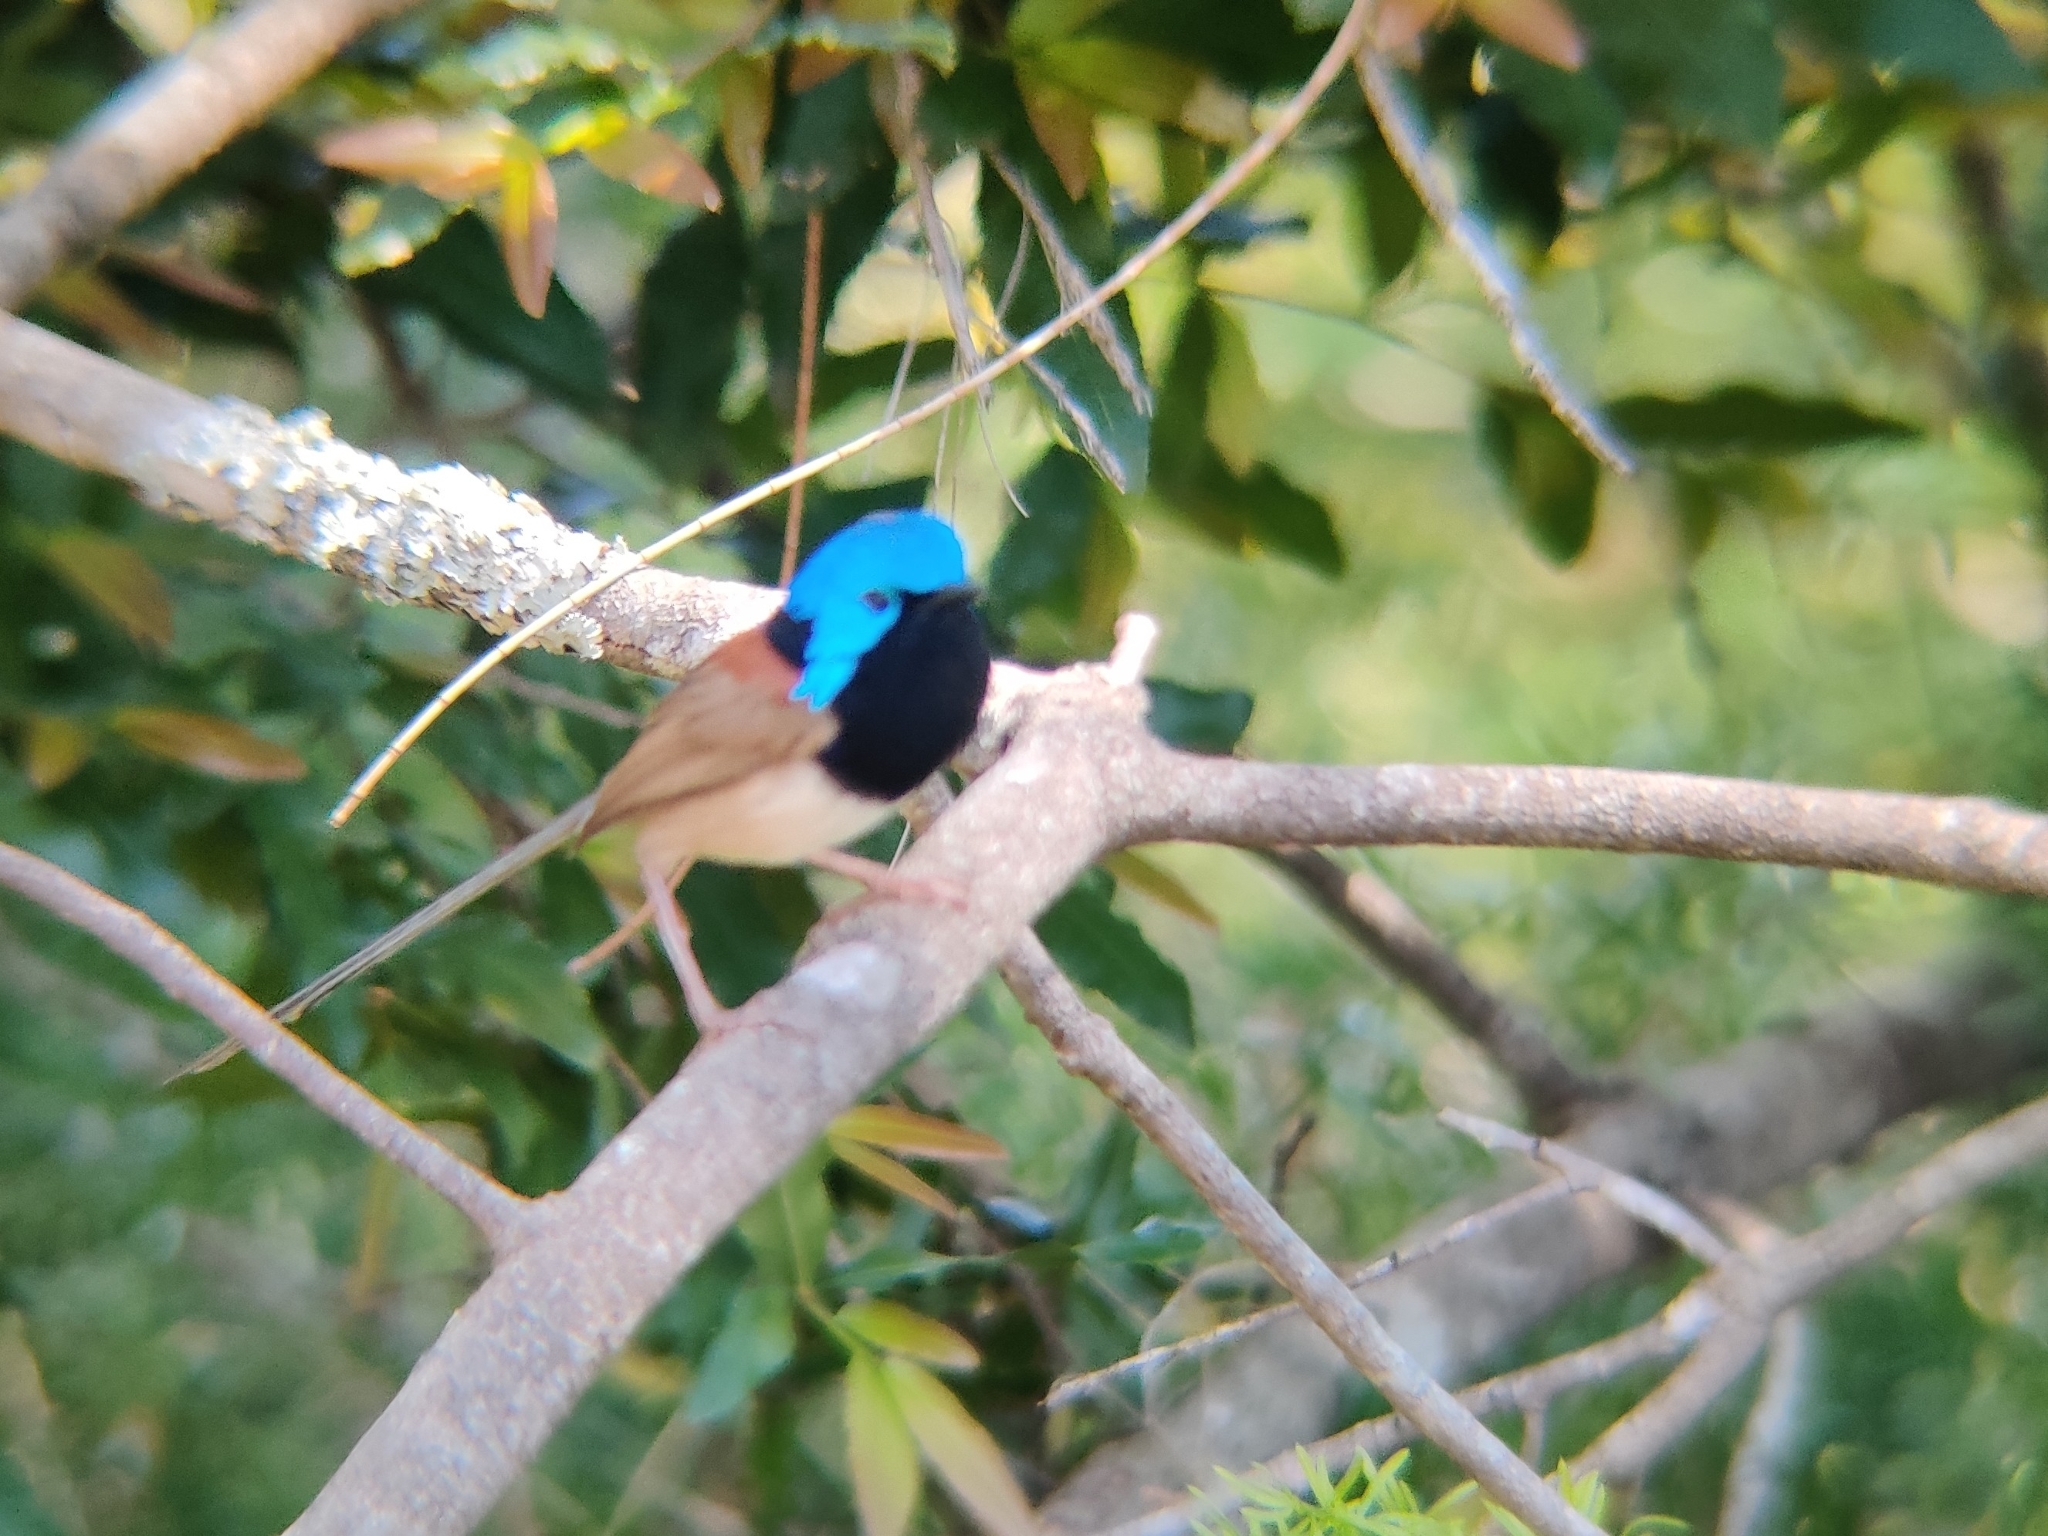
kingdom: Animalia
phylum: Chordata
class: Aves
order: Passeriformes
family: Maluridae
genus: Malurus
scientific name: Malurus lamberti
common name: Variegated fairywren
